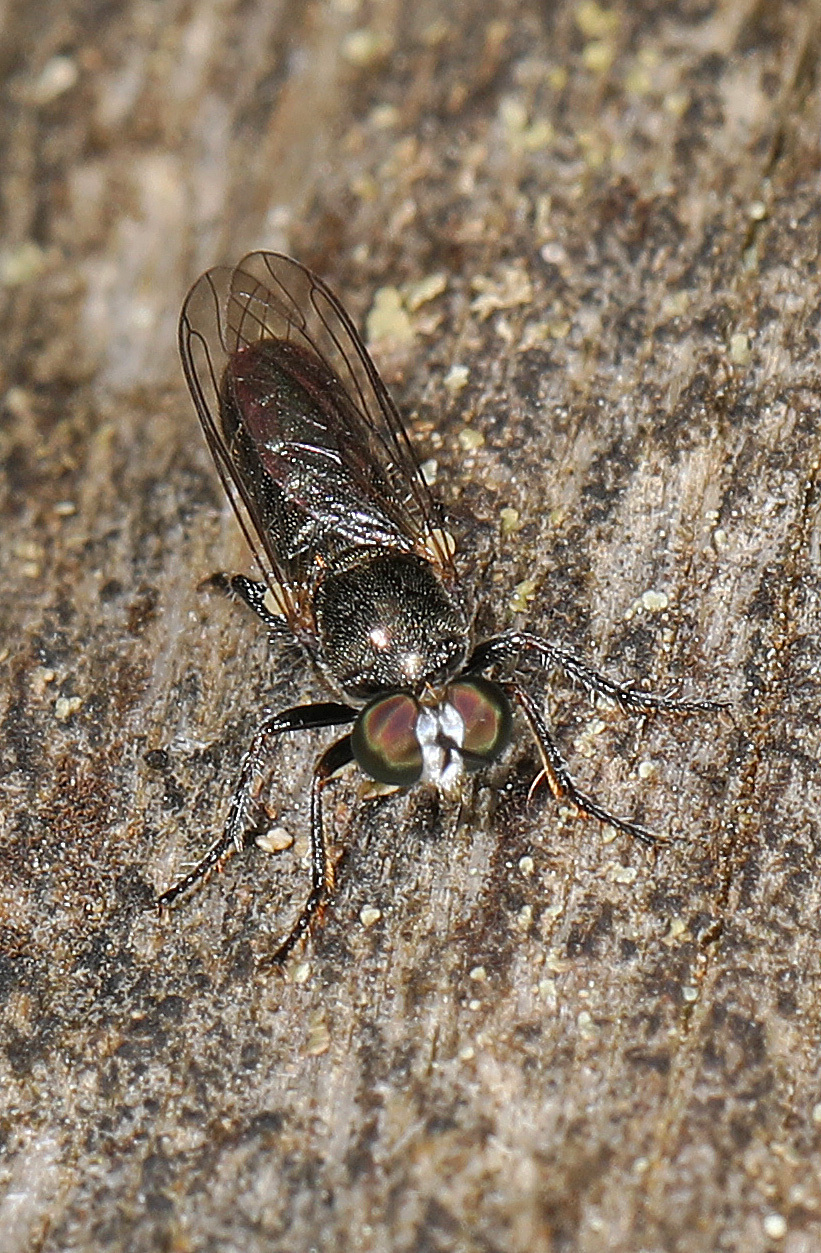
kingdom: Animalia
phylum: Arthropoda
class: Insecta
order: Diptera
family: Asilidae
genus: Atomosia
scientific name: Atomosia puella
